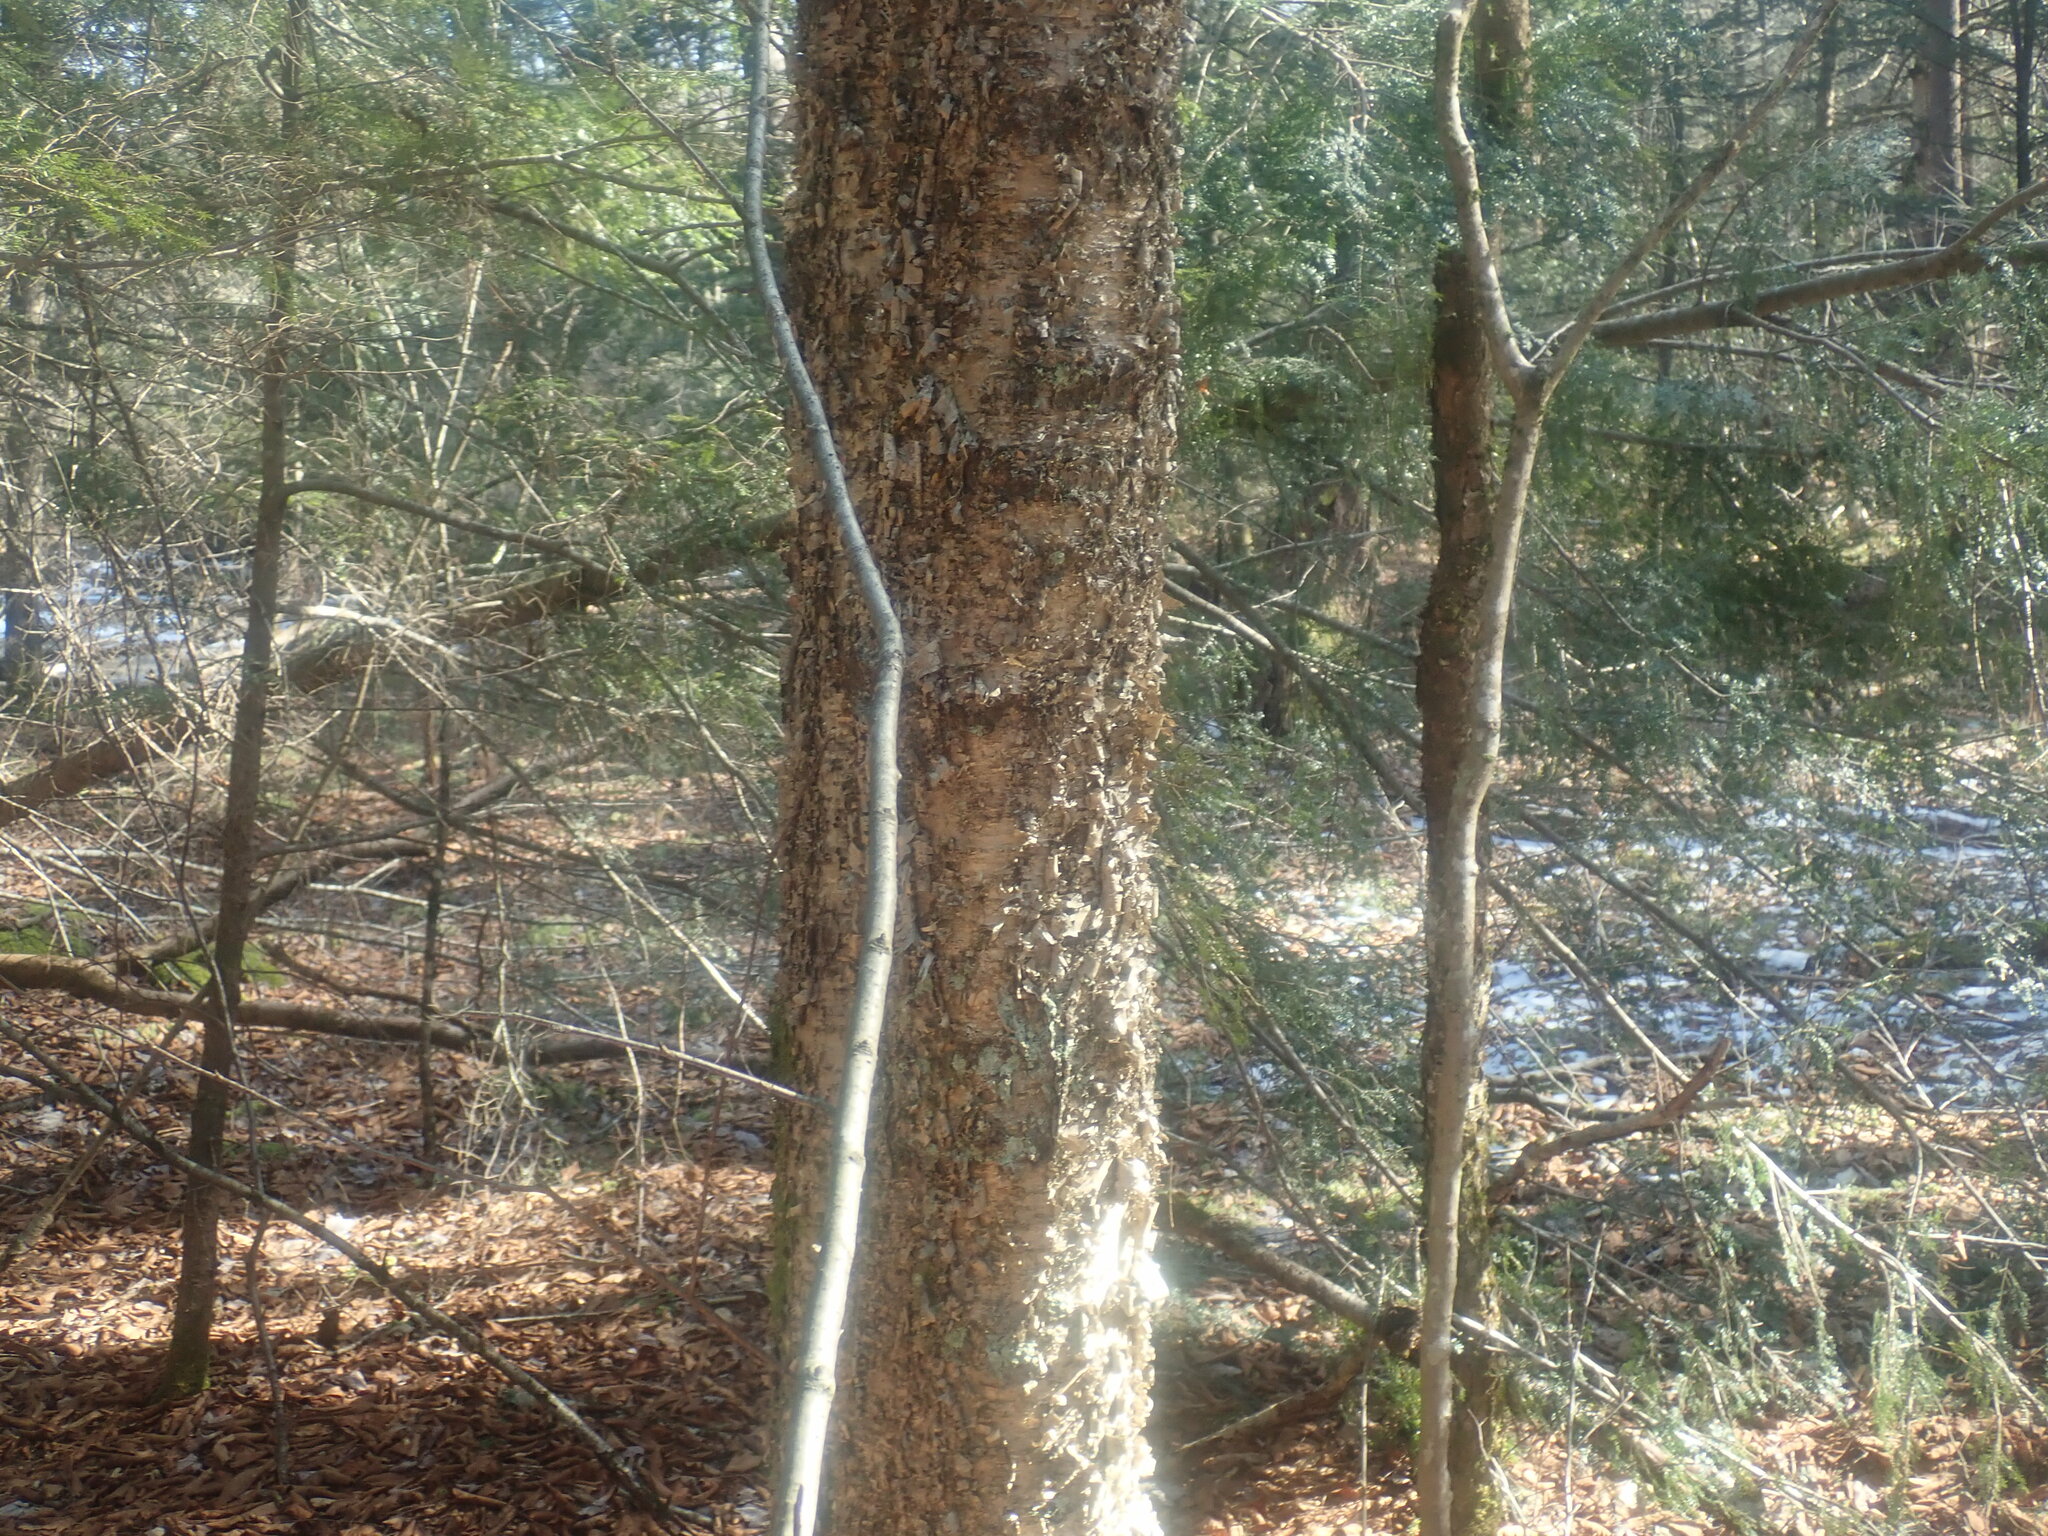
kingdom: Plantae
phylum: Tracheophyta
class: Magnoliopsida
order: Fagales
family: Betulaceae
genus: Betula
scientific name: Betula alleghaniensis
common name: Yellow birch
